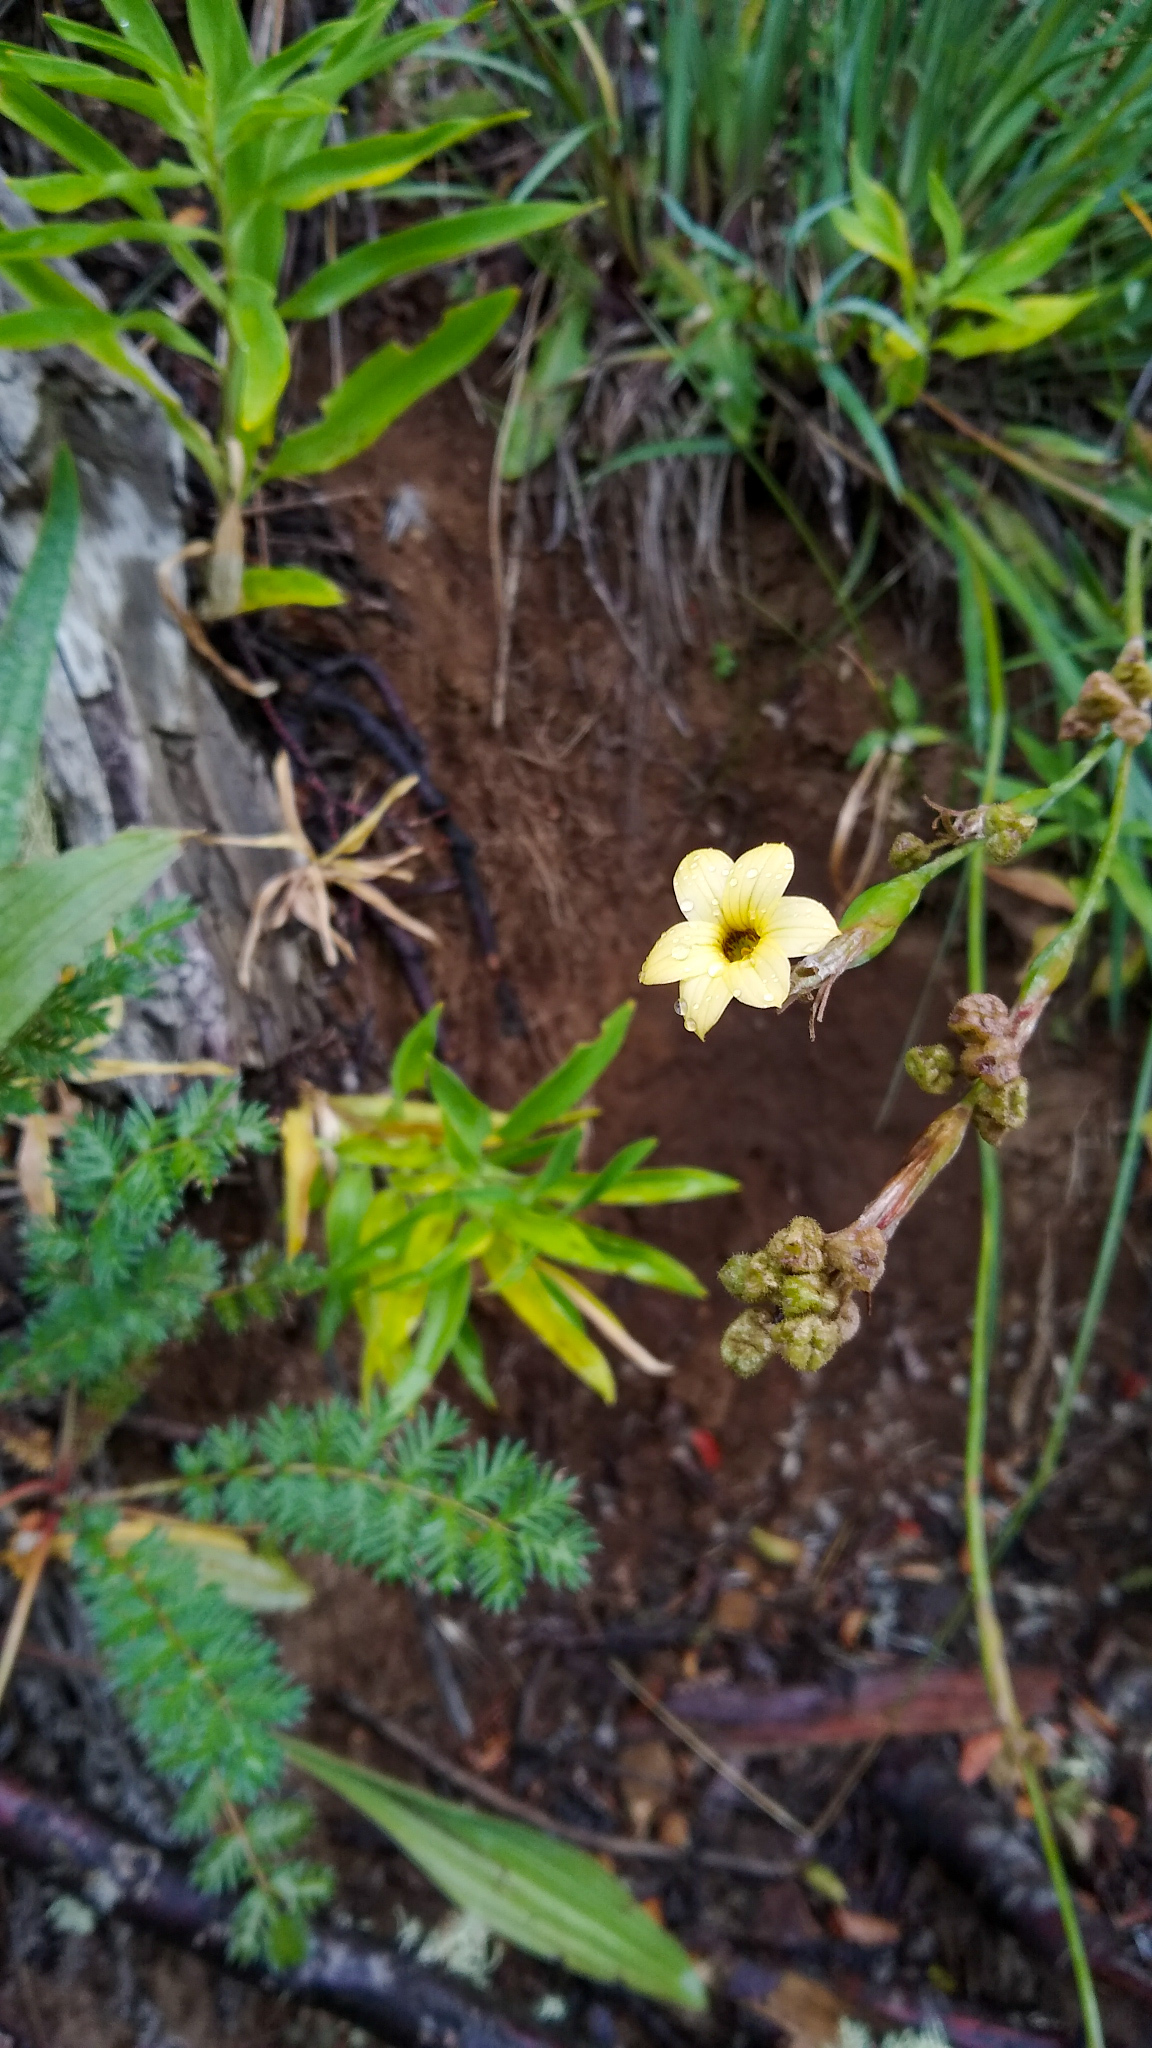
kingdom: Plantae
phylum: Tracheophyta
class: Liliopsida
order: Asparagales
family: Iridaceae
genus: Sisyrinchium
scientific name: Sisyrinchium arenarium
